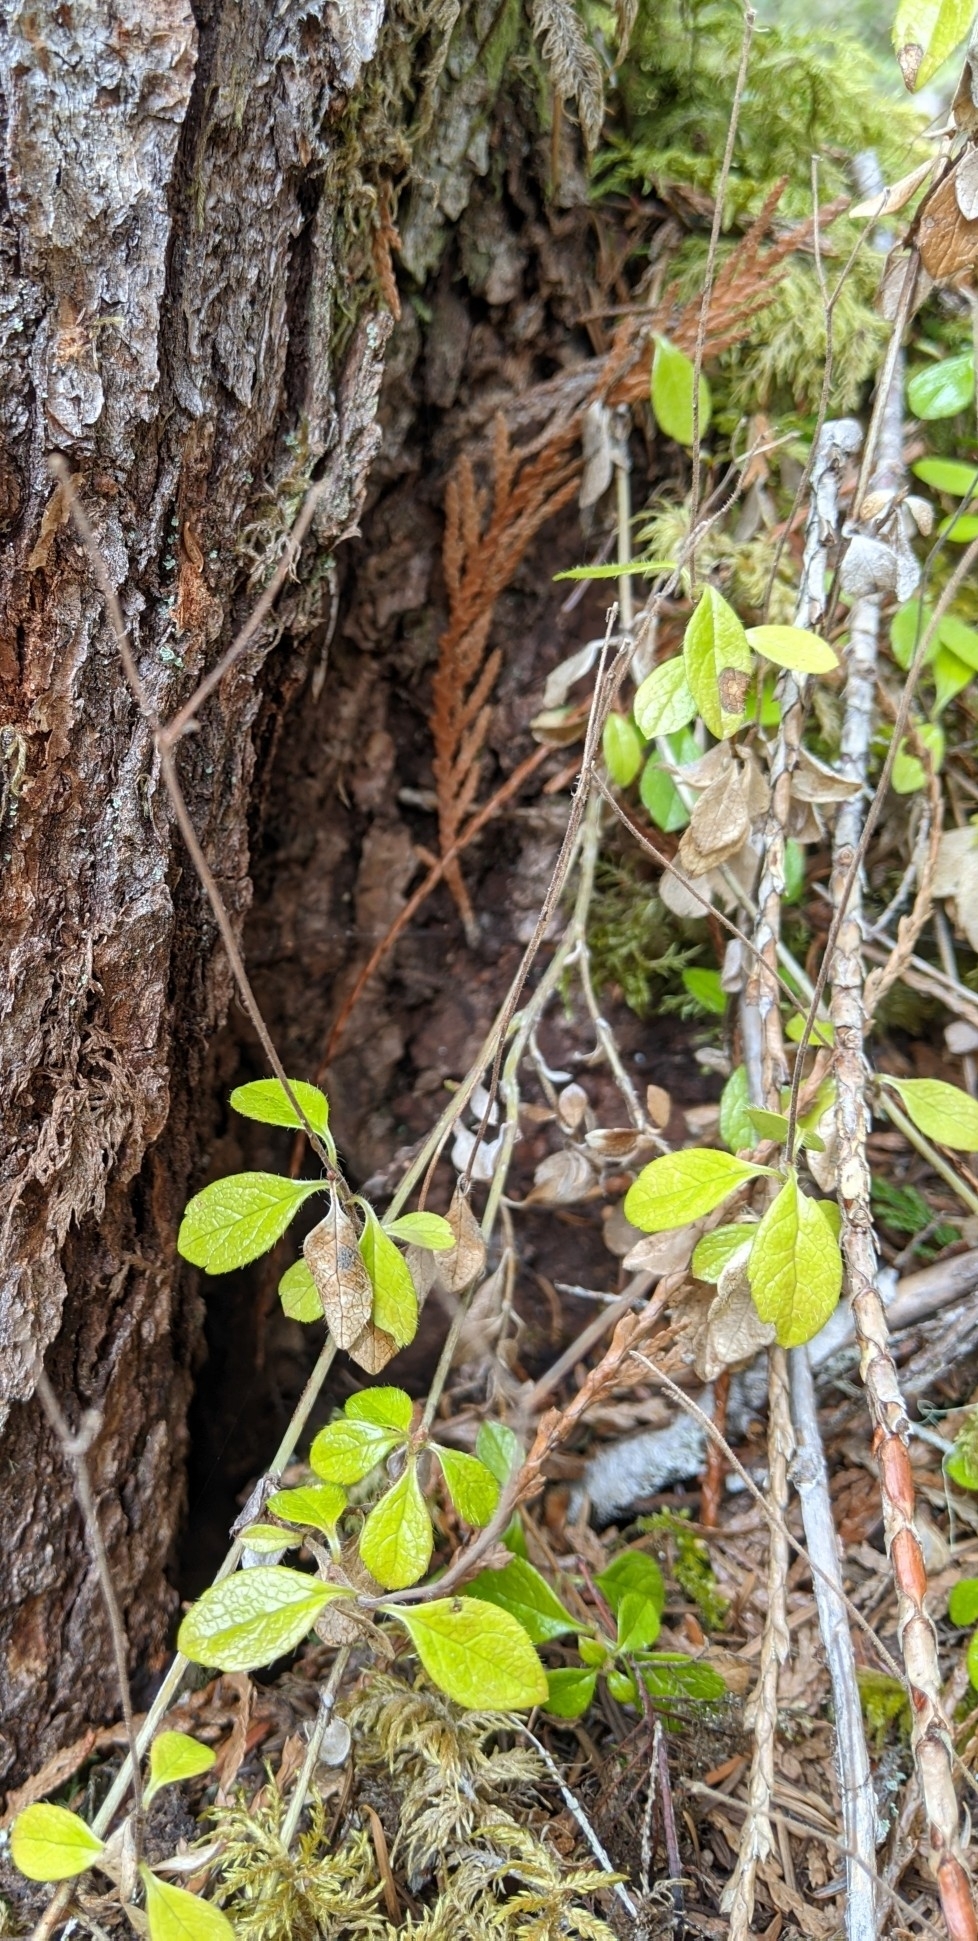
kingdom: Plantae
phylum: Tracheophyta
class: Magnoliopsida
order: Dipsacales
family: Caprifoliaceae
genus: Linnaea
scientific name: Linnaea borealis
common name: Twinflower
